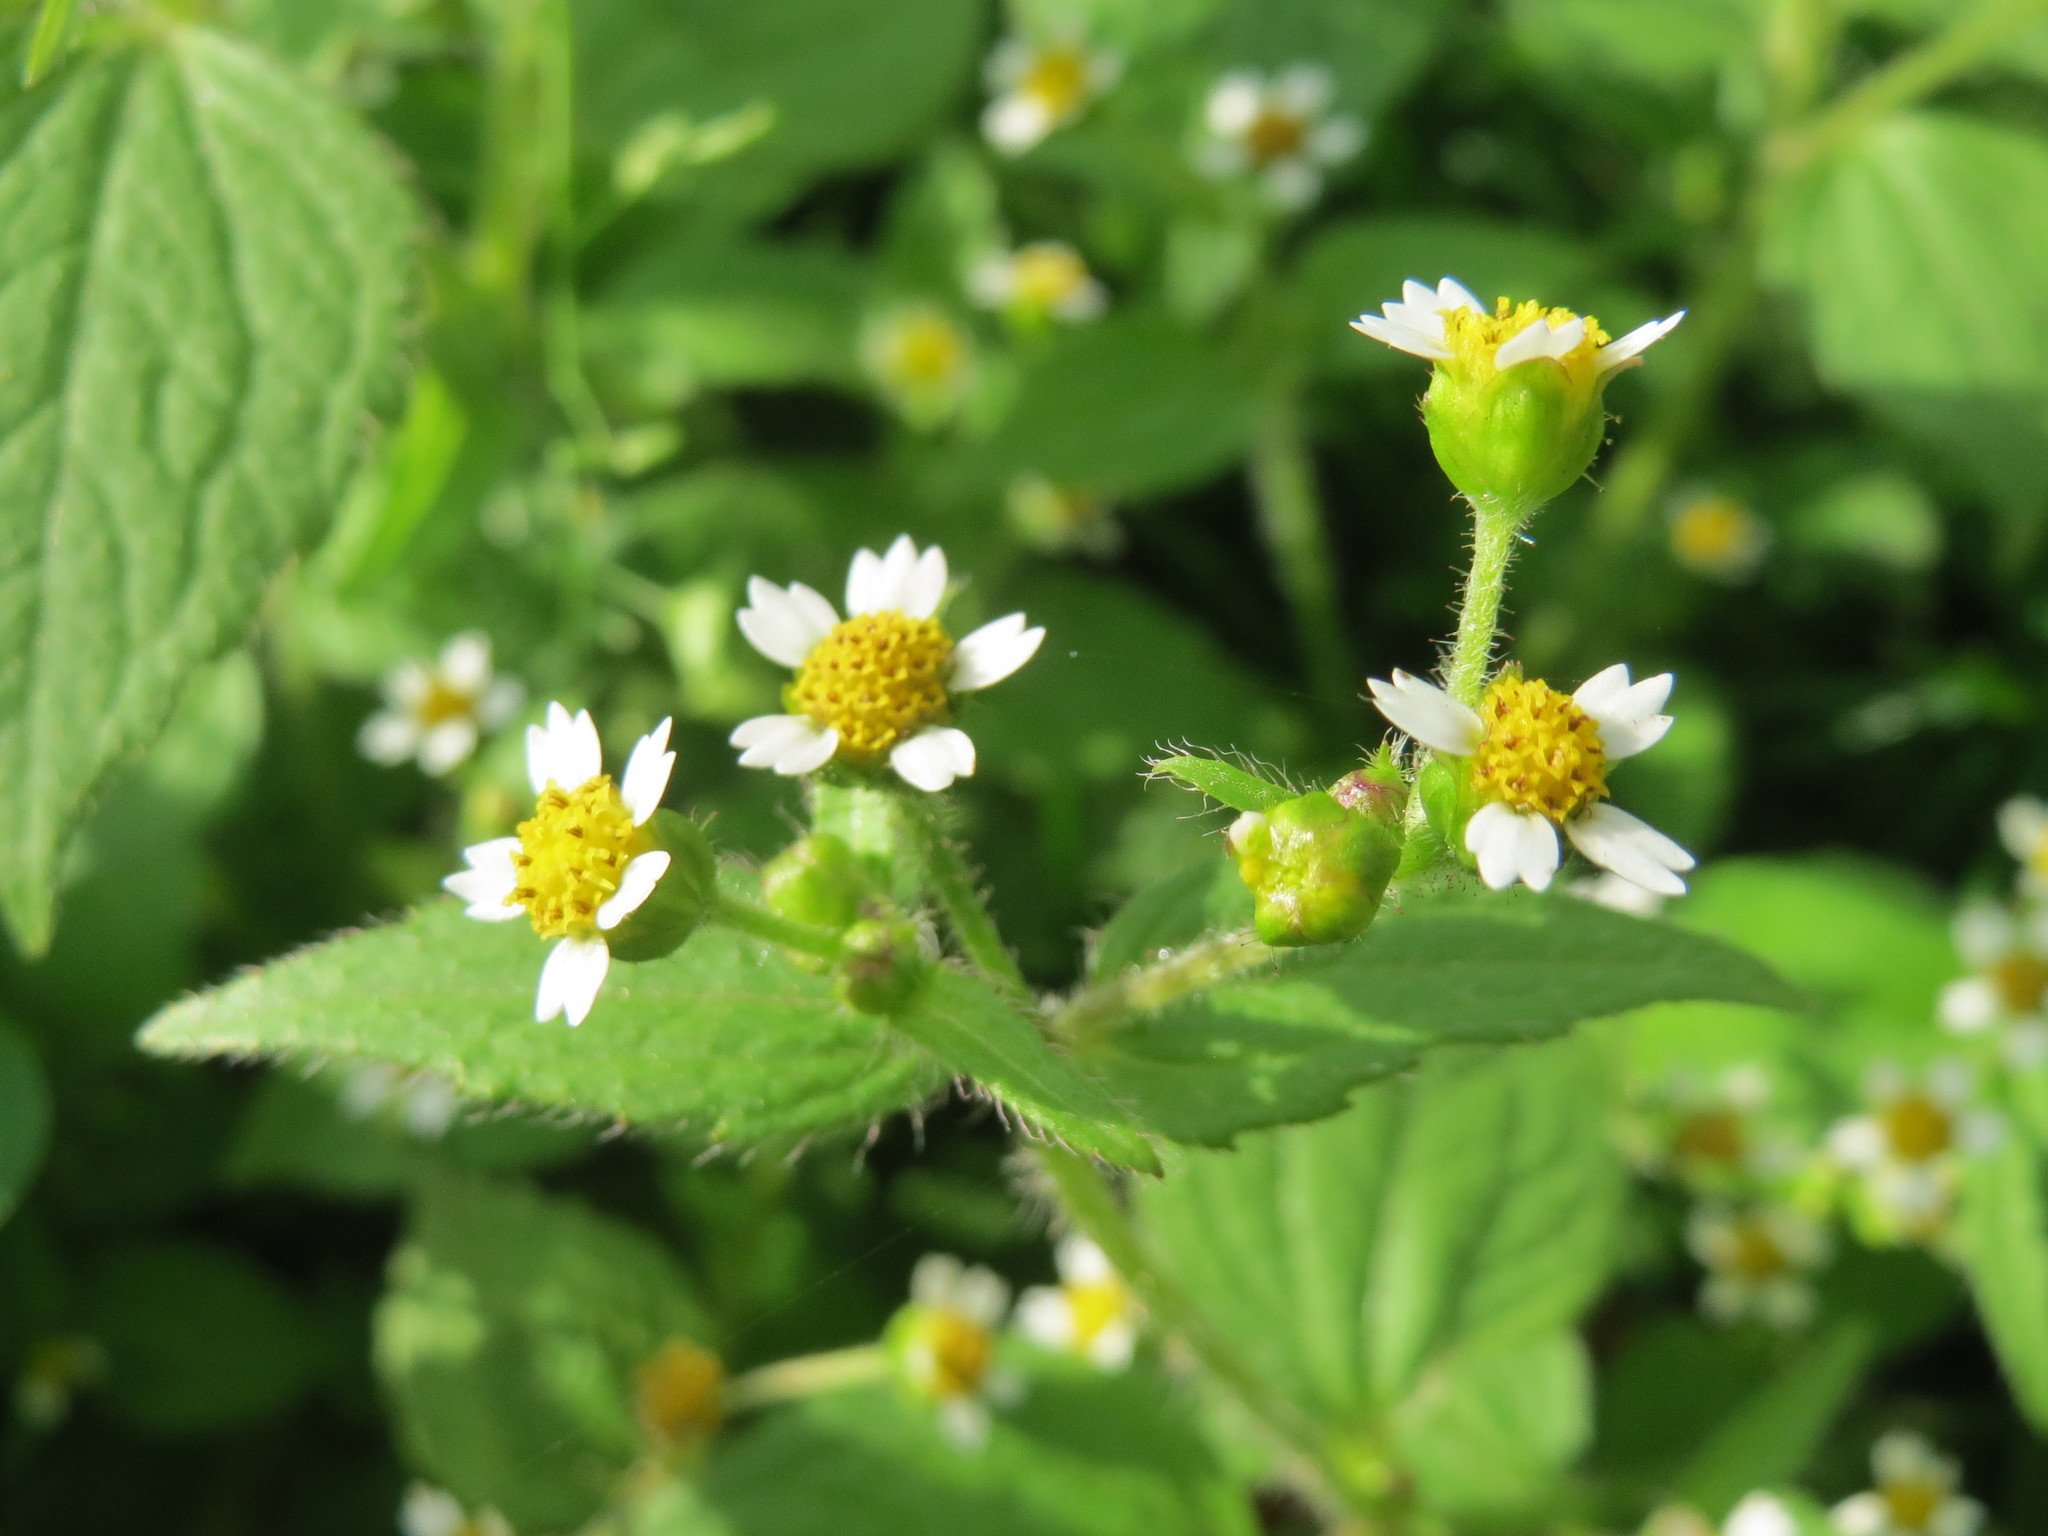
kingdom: Plantae
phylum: Tracheophyta
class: Magnoliopsida
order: Asterales
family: Asteraceae
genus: Galinsoga
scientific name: Galinsoga quadriradiata
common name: Shaggy soldier
